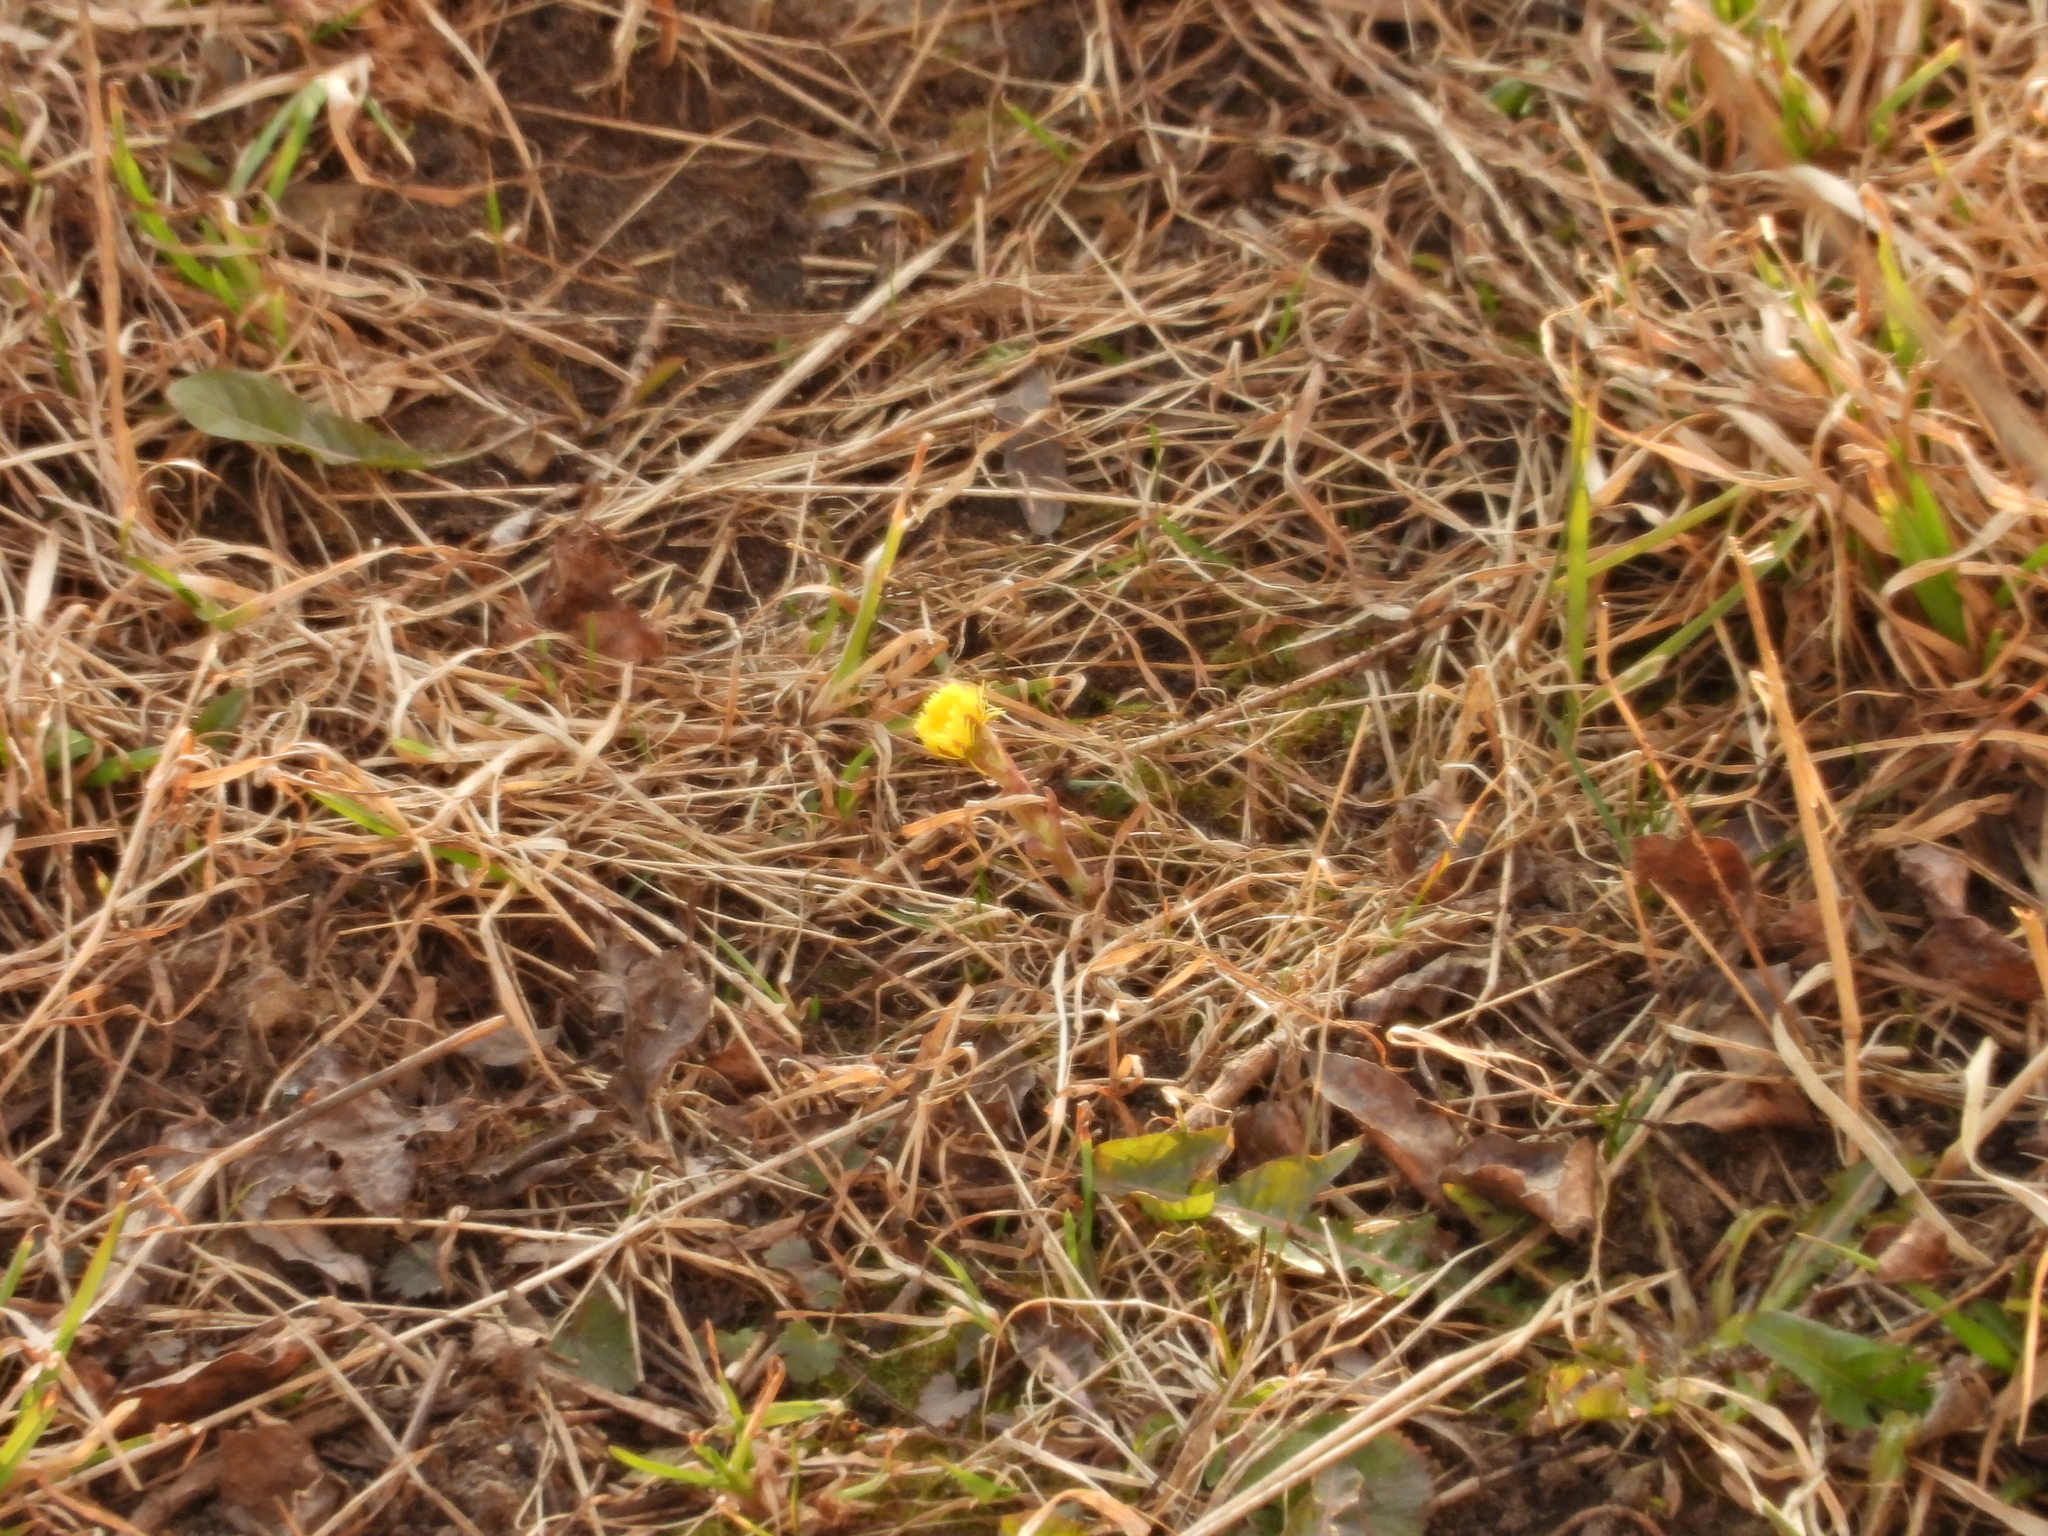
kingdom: Plantae
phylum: Tracheophyta
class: Magnoliopsida
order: Asterales
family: Asteraceae
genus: Tussilago
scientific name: Tussilago farfara
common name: Coltsfoot
